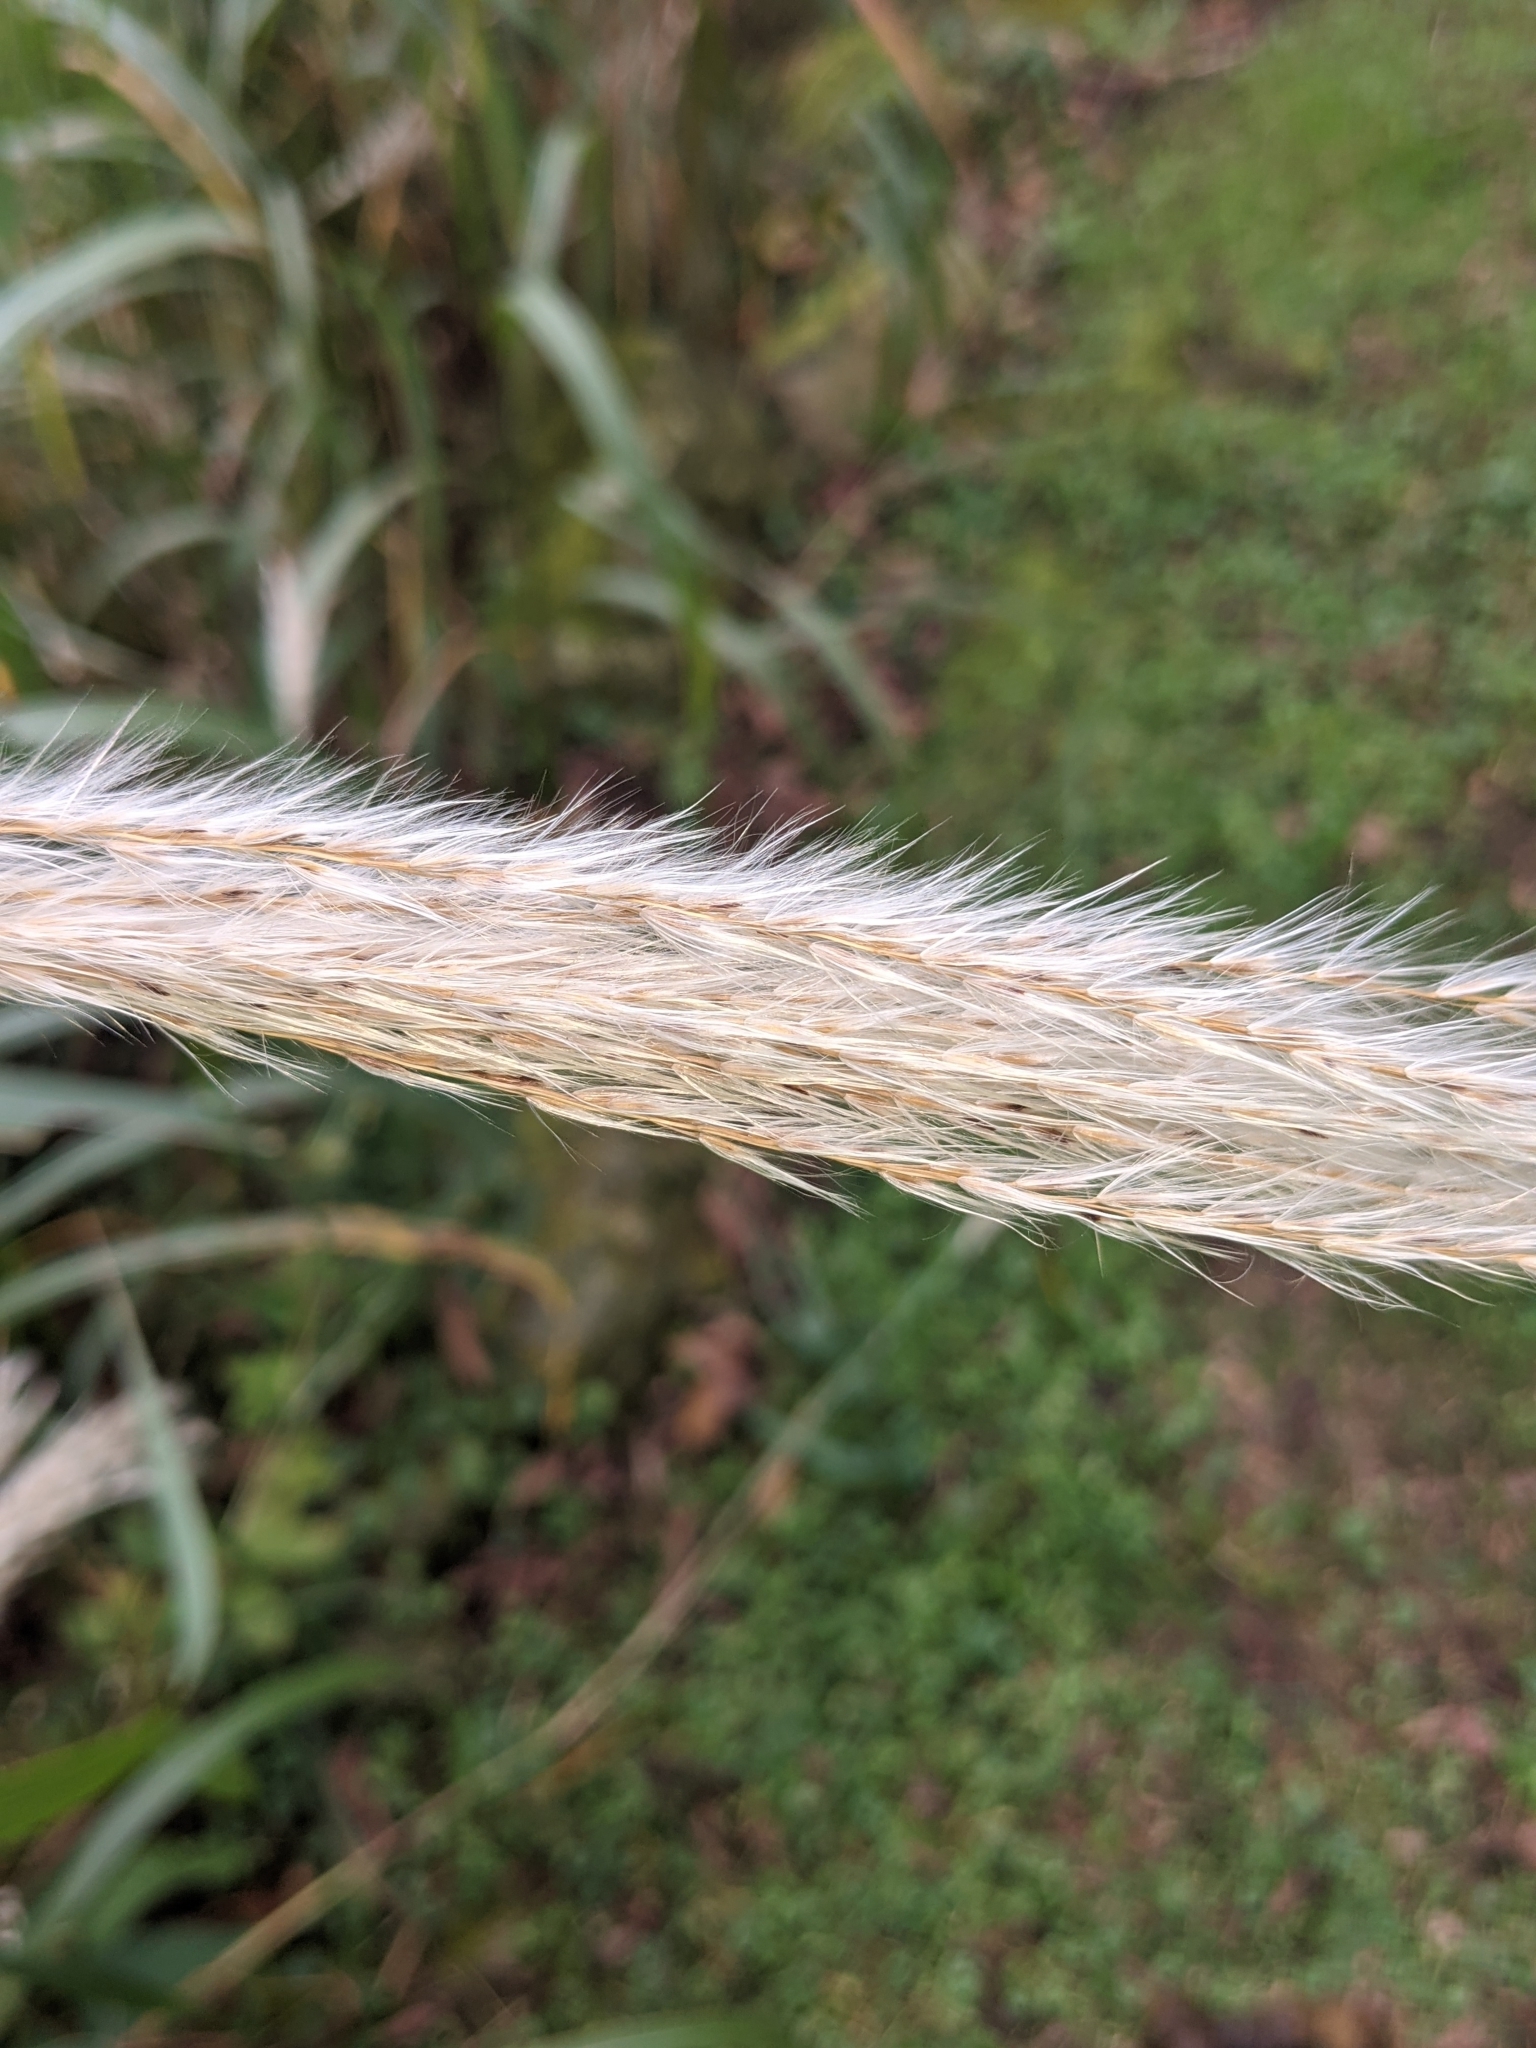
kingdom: Plantae
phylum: Tracheophyta
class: Liliopsida
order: Poales
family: Poaceae
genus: Miscanthus
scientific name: Miscanthus sacchariflorus
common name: Amur silver grass
